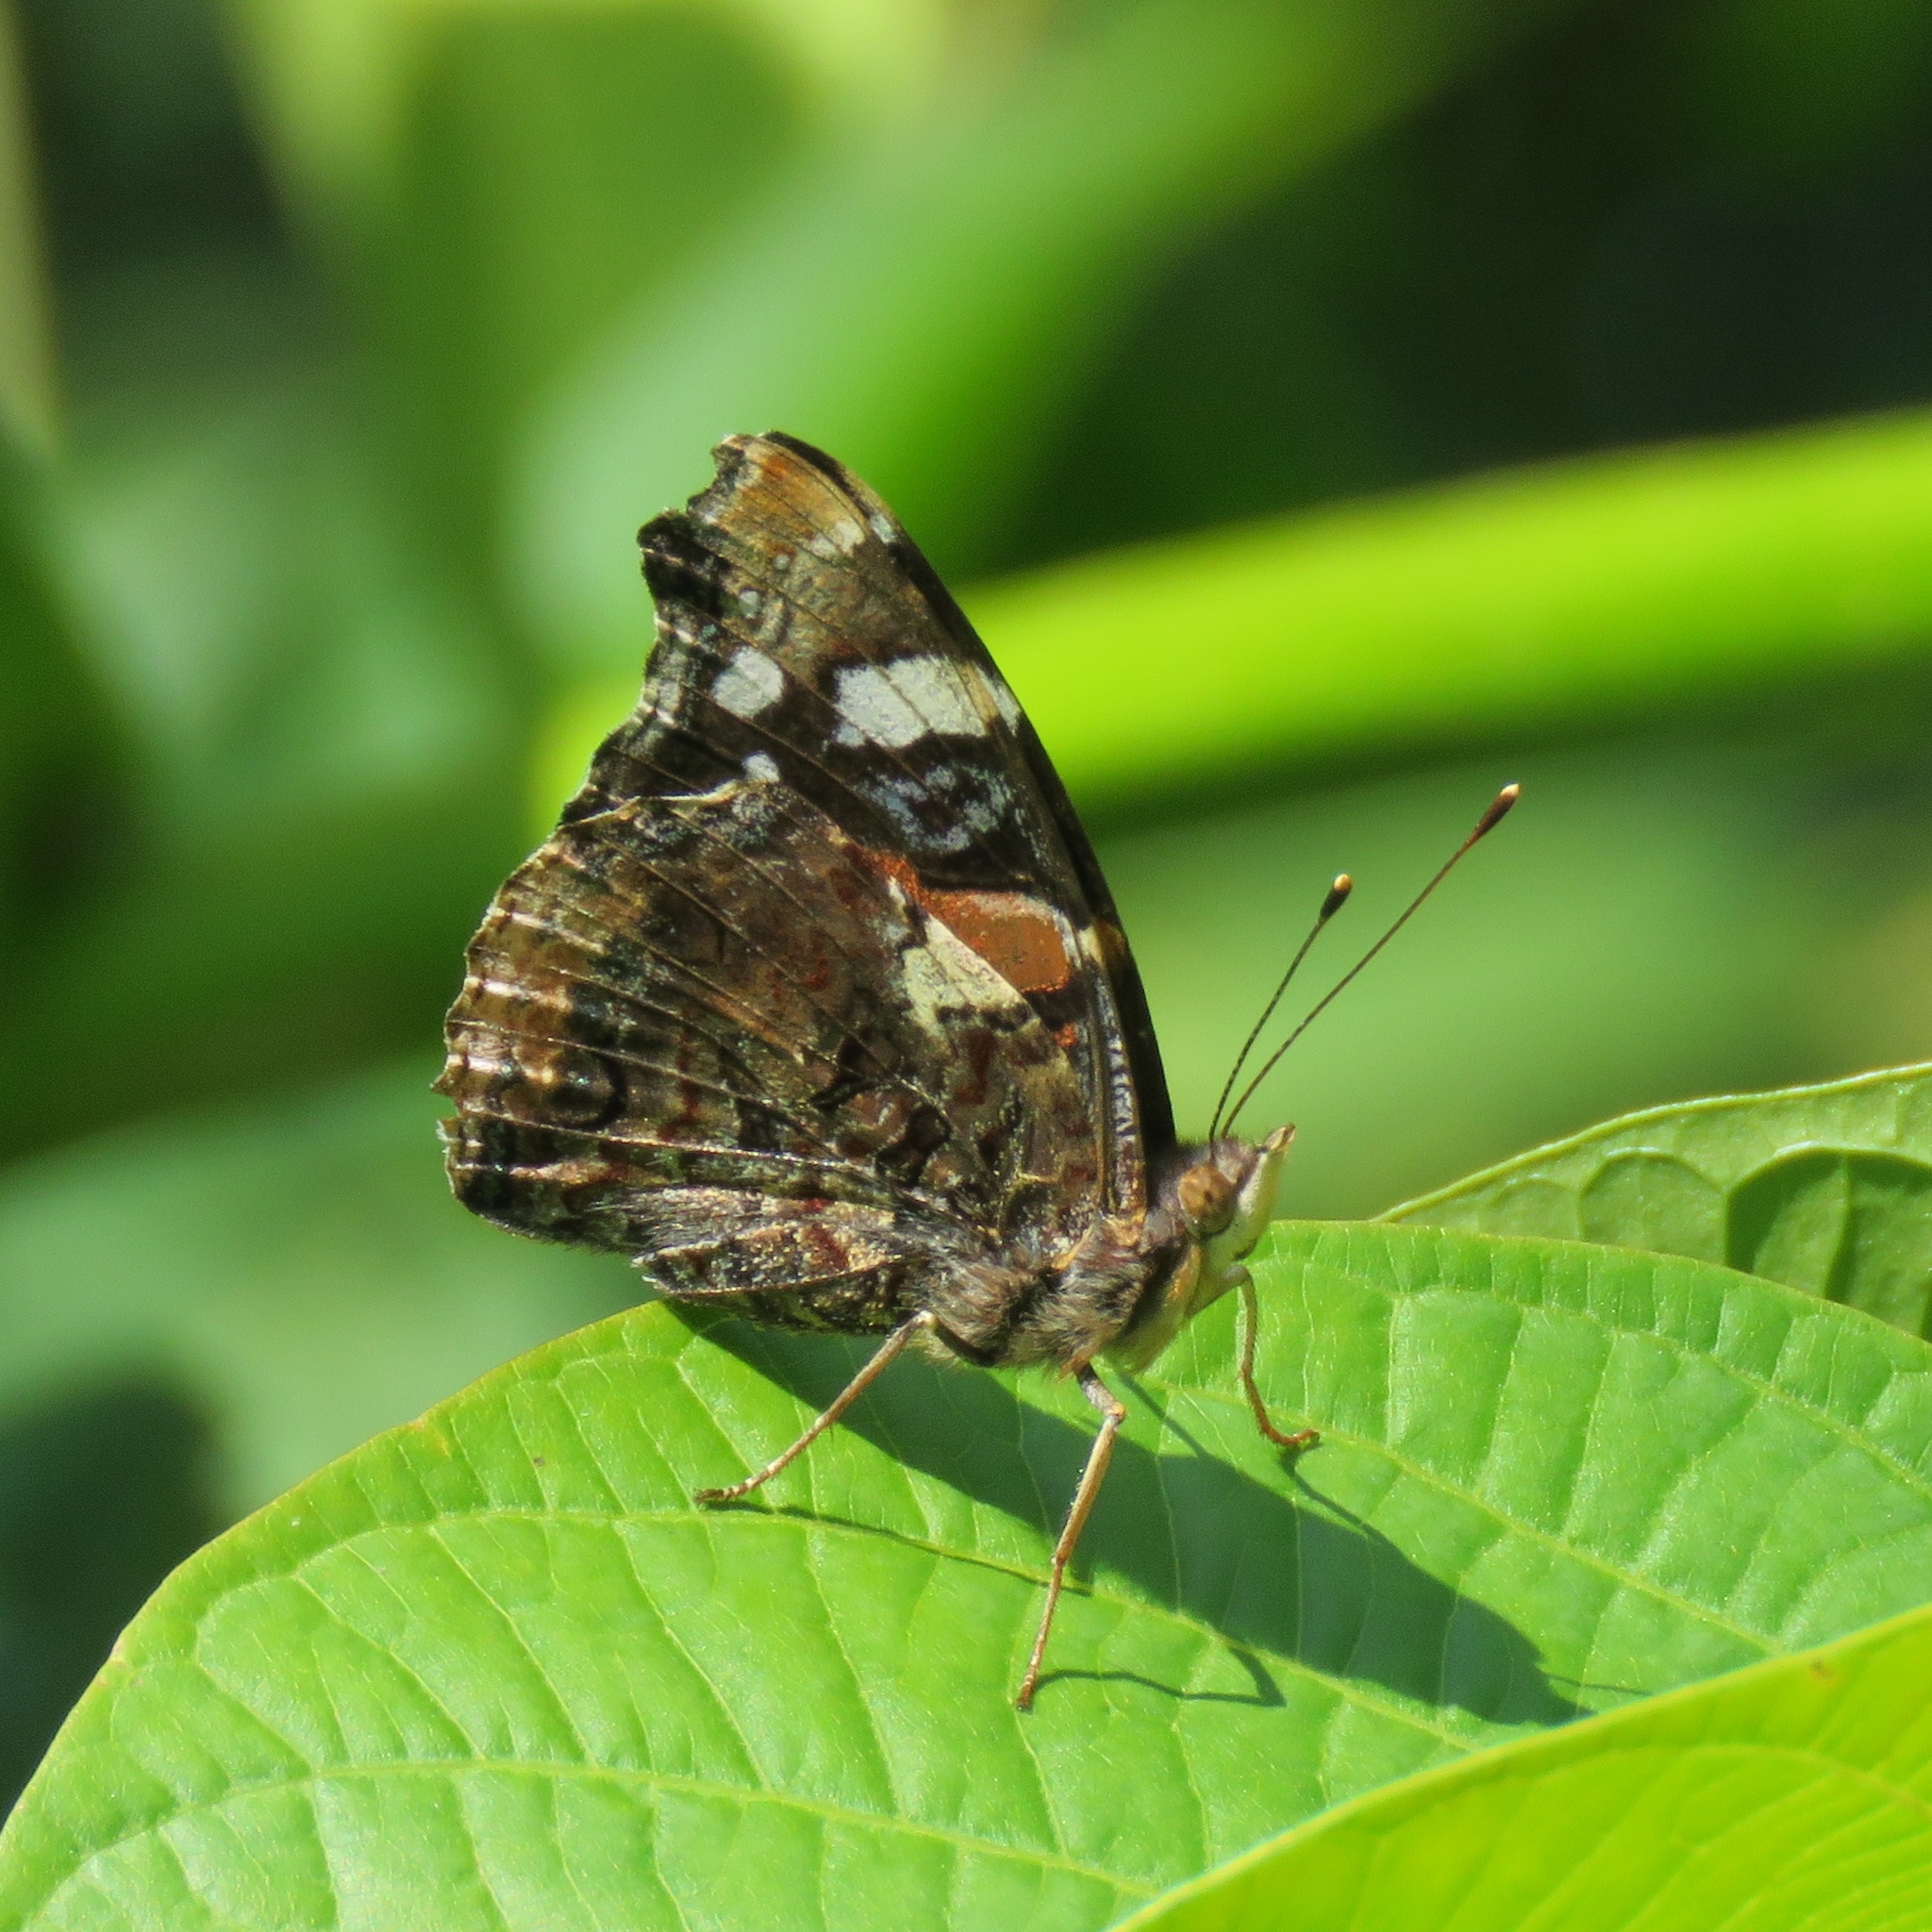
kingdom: Animalia
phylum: Arthropoda
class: Insecta
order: Lepidoptera
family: Nymphalidae
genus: Vanessa
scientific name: Vanessa atalanta
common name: Red admiral
